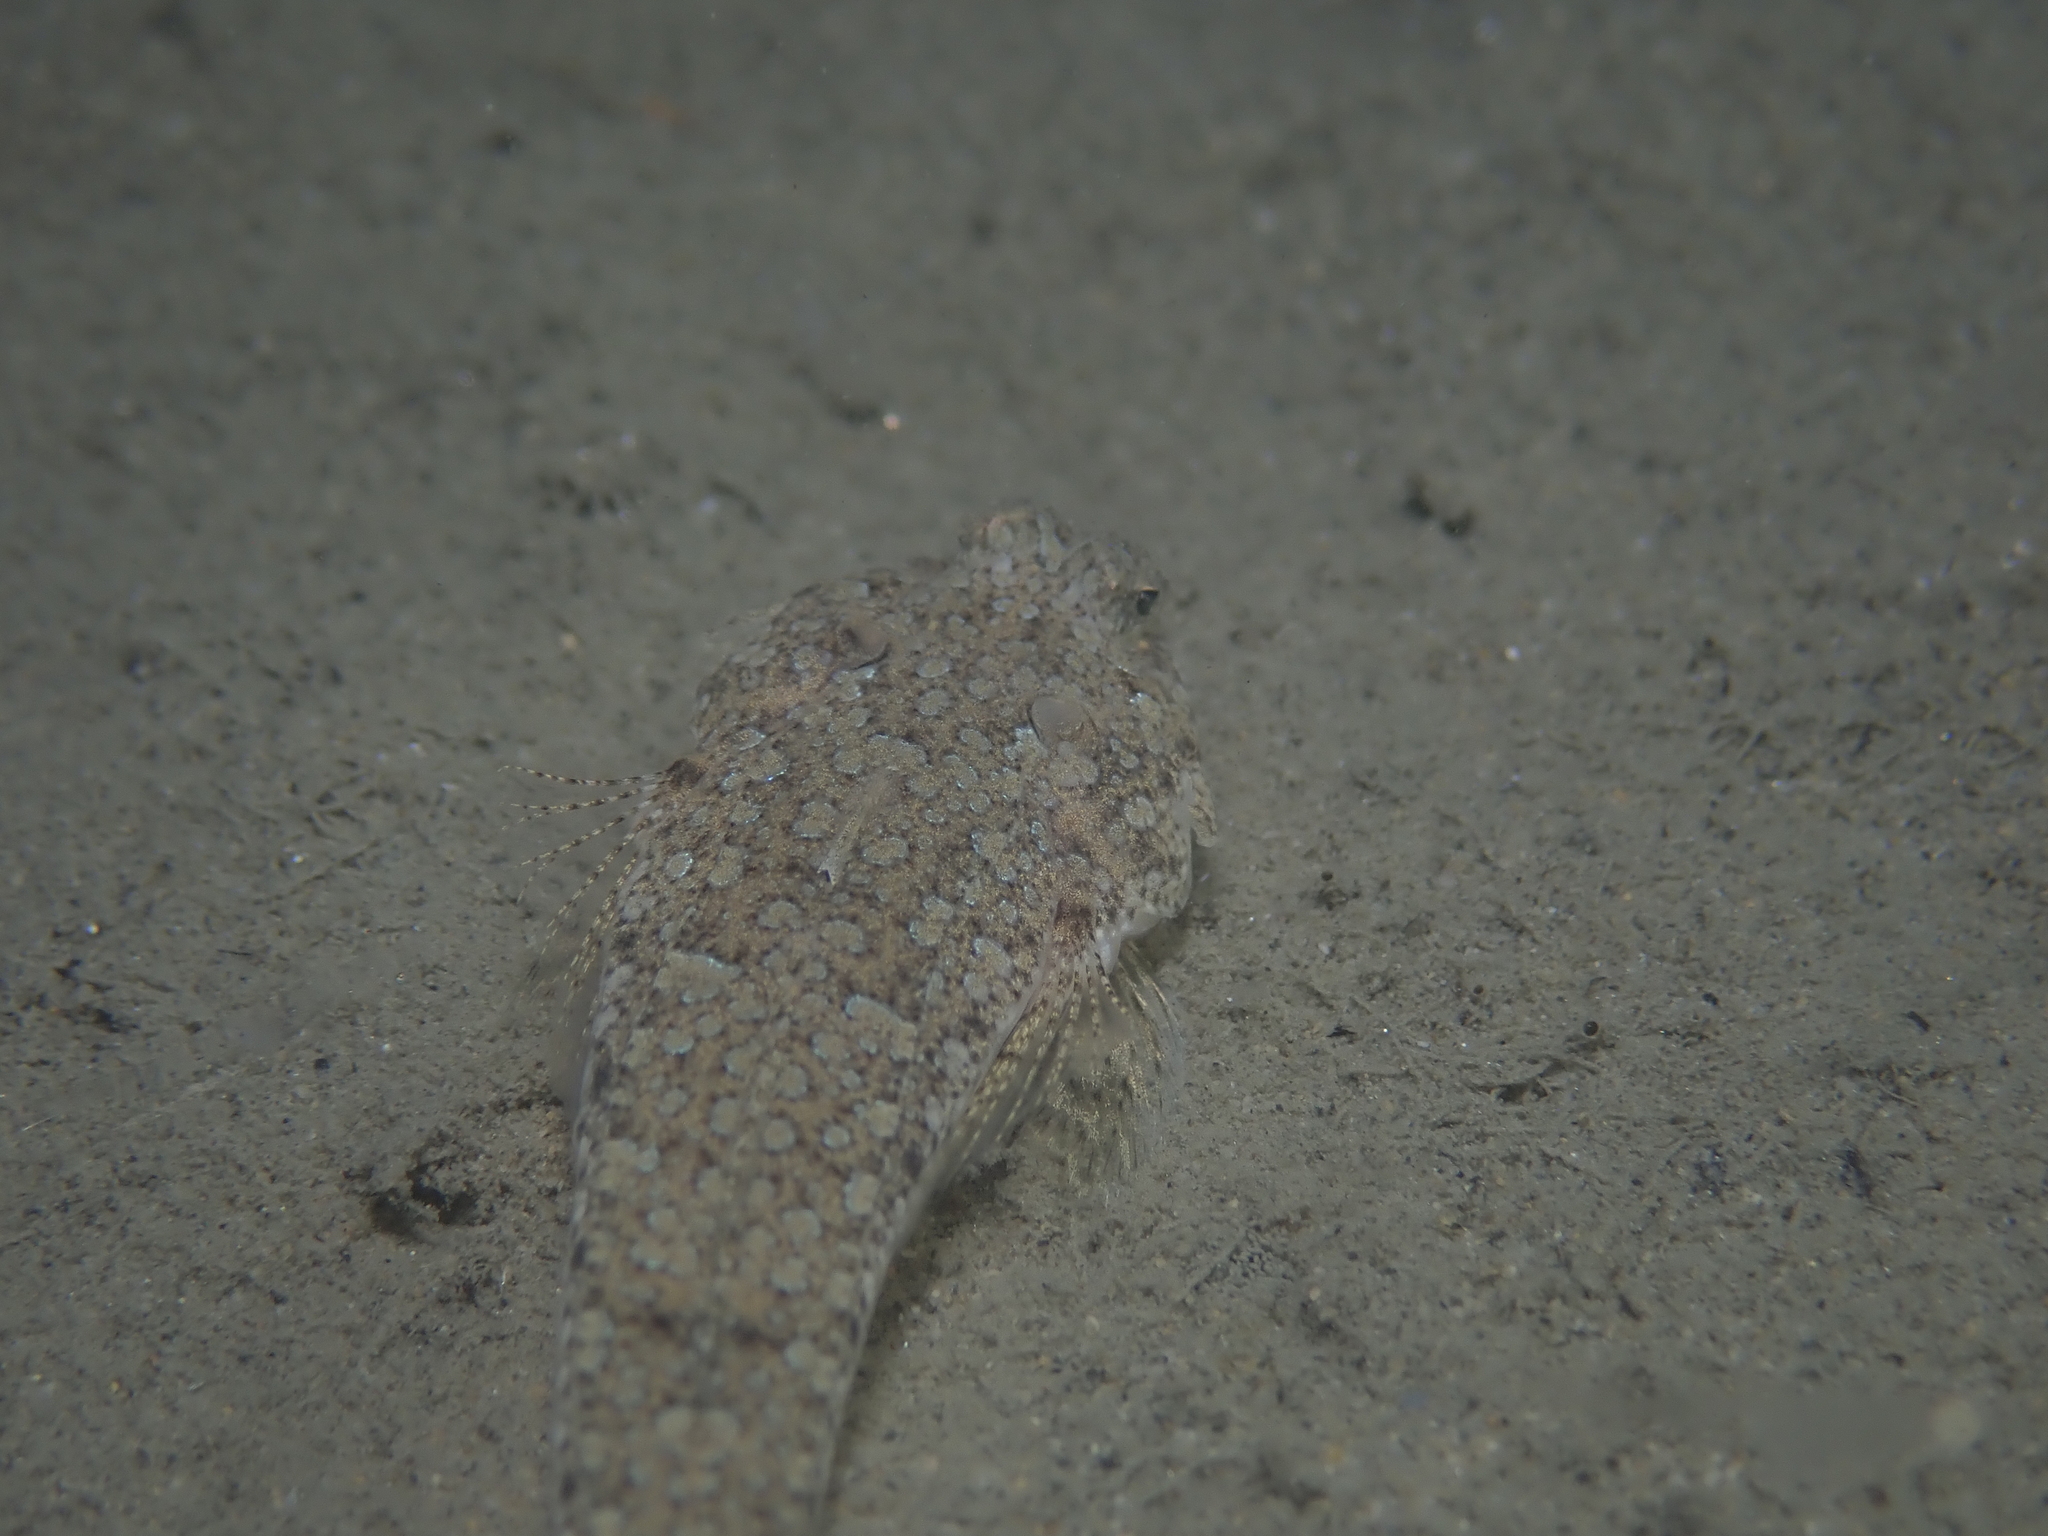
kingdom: Animalia
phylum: Chordata
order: Perciformes
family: Callionymidae
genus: Callionymus
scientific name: Callionymus risso
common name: Risso’s dragonet
